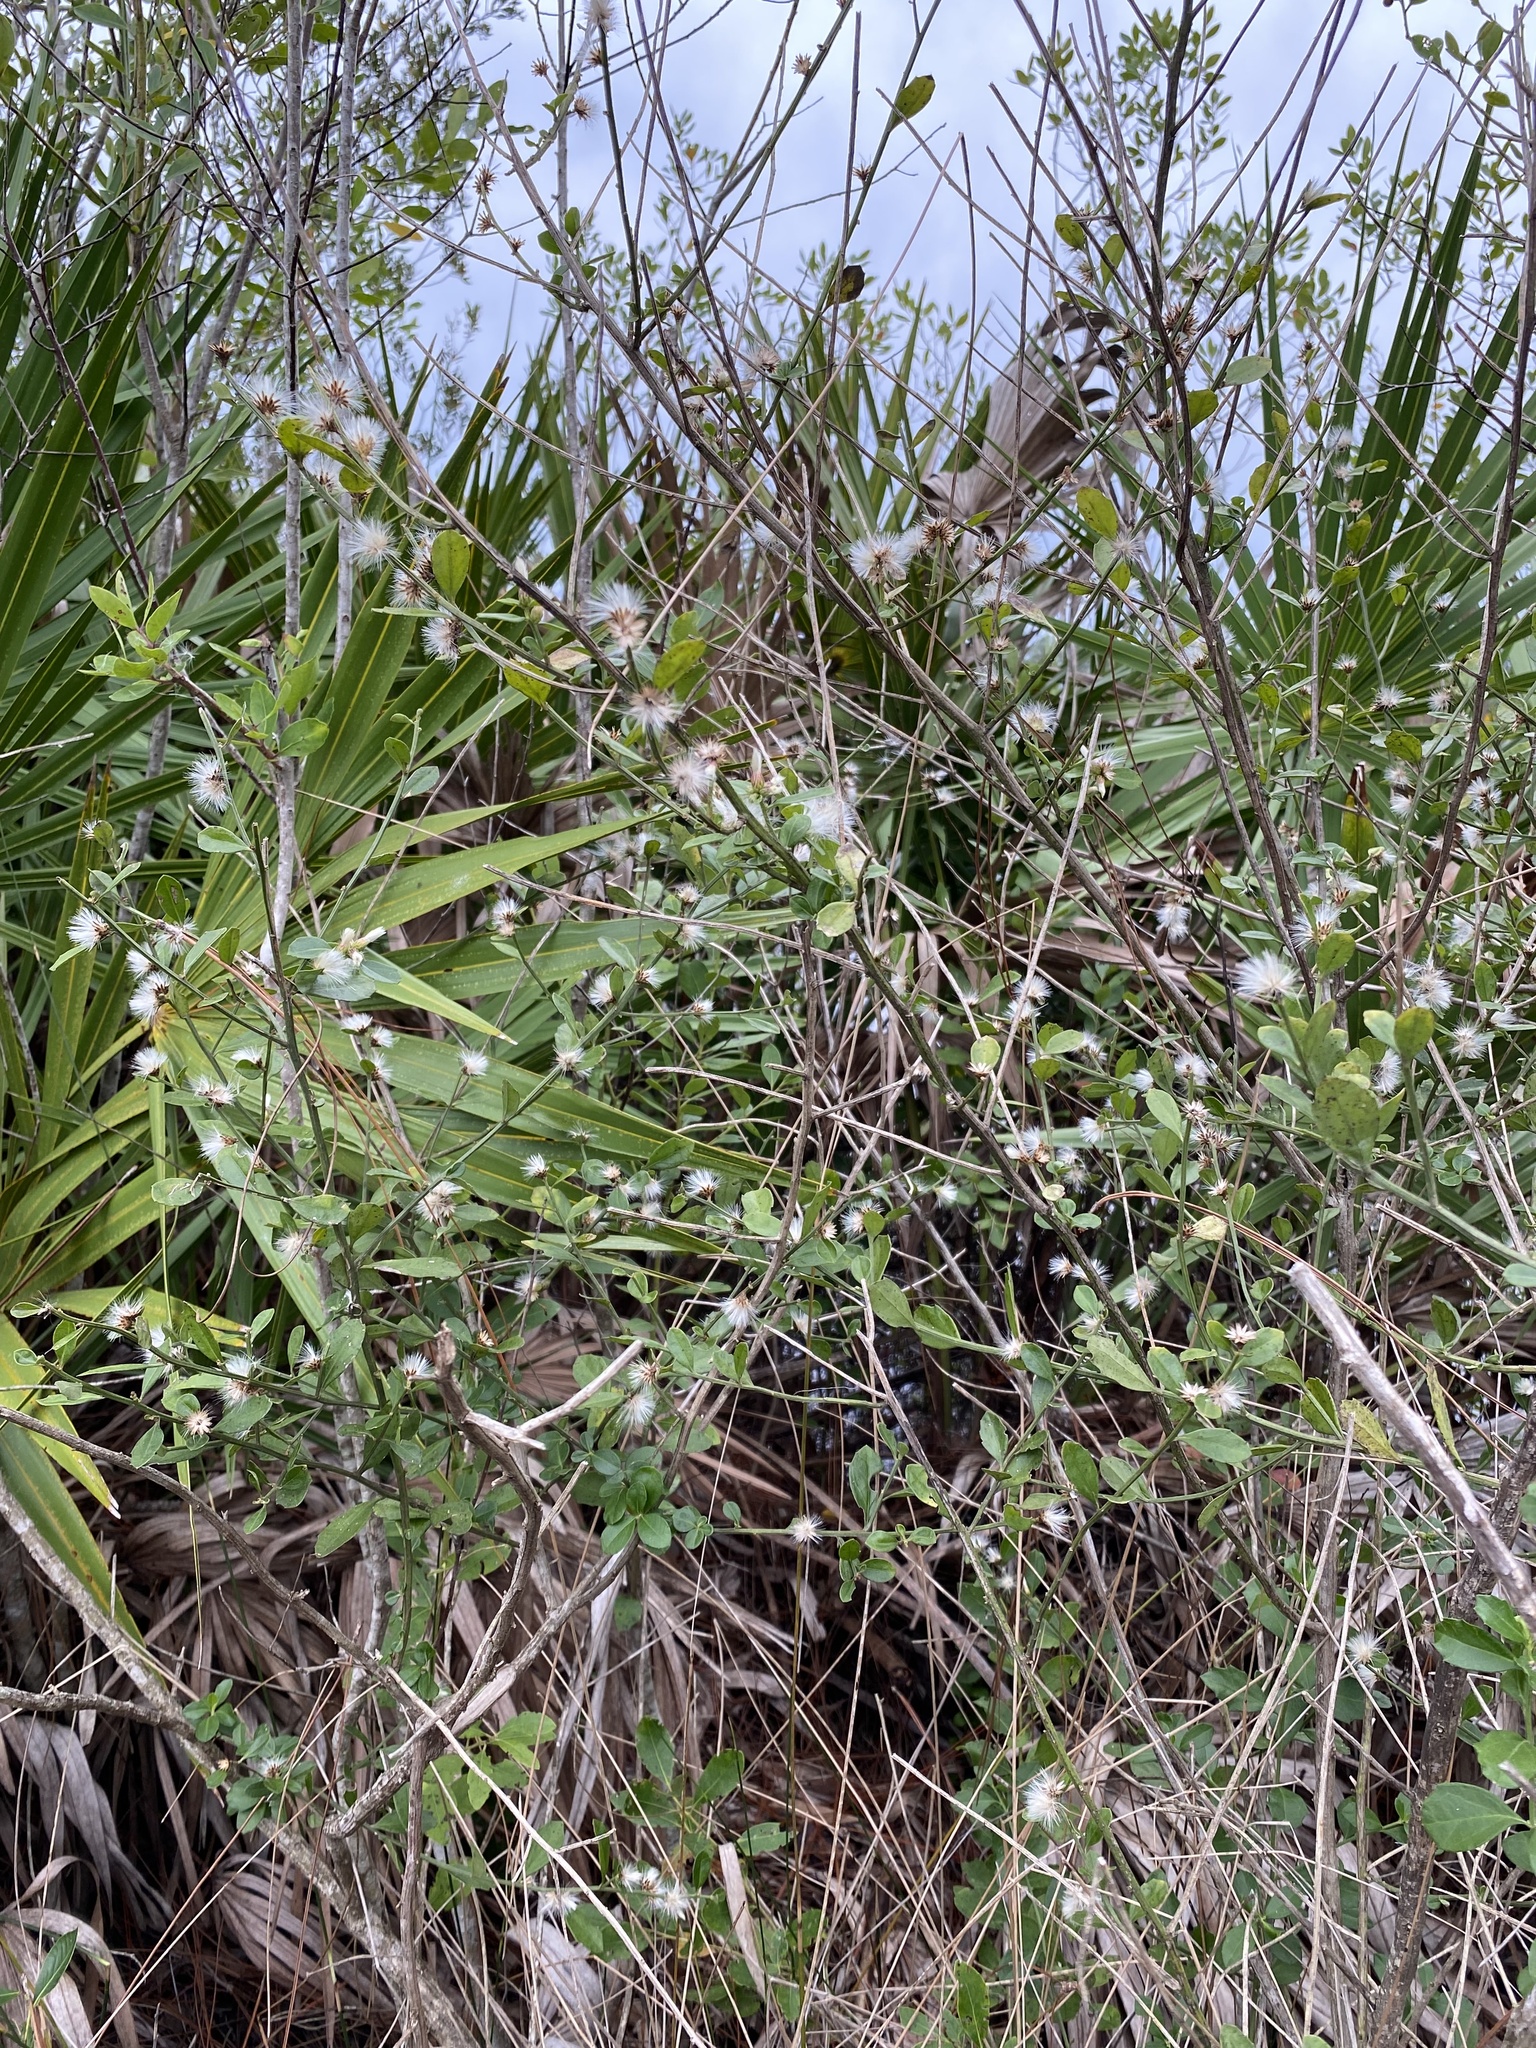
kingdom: Plantae
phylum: Tracheophyta
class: Magnoliopsida
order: Asterales
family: Asteraceae
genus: Baccharis
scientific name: Baccharis glomeruliflora
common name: Silverling groundsel bush
